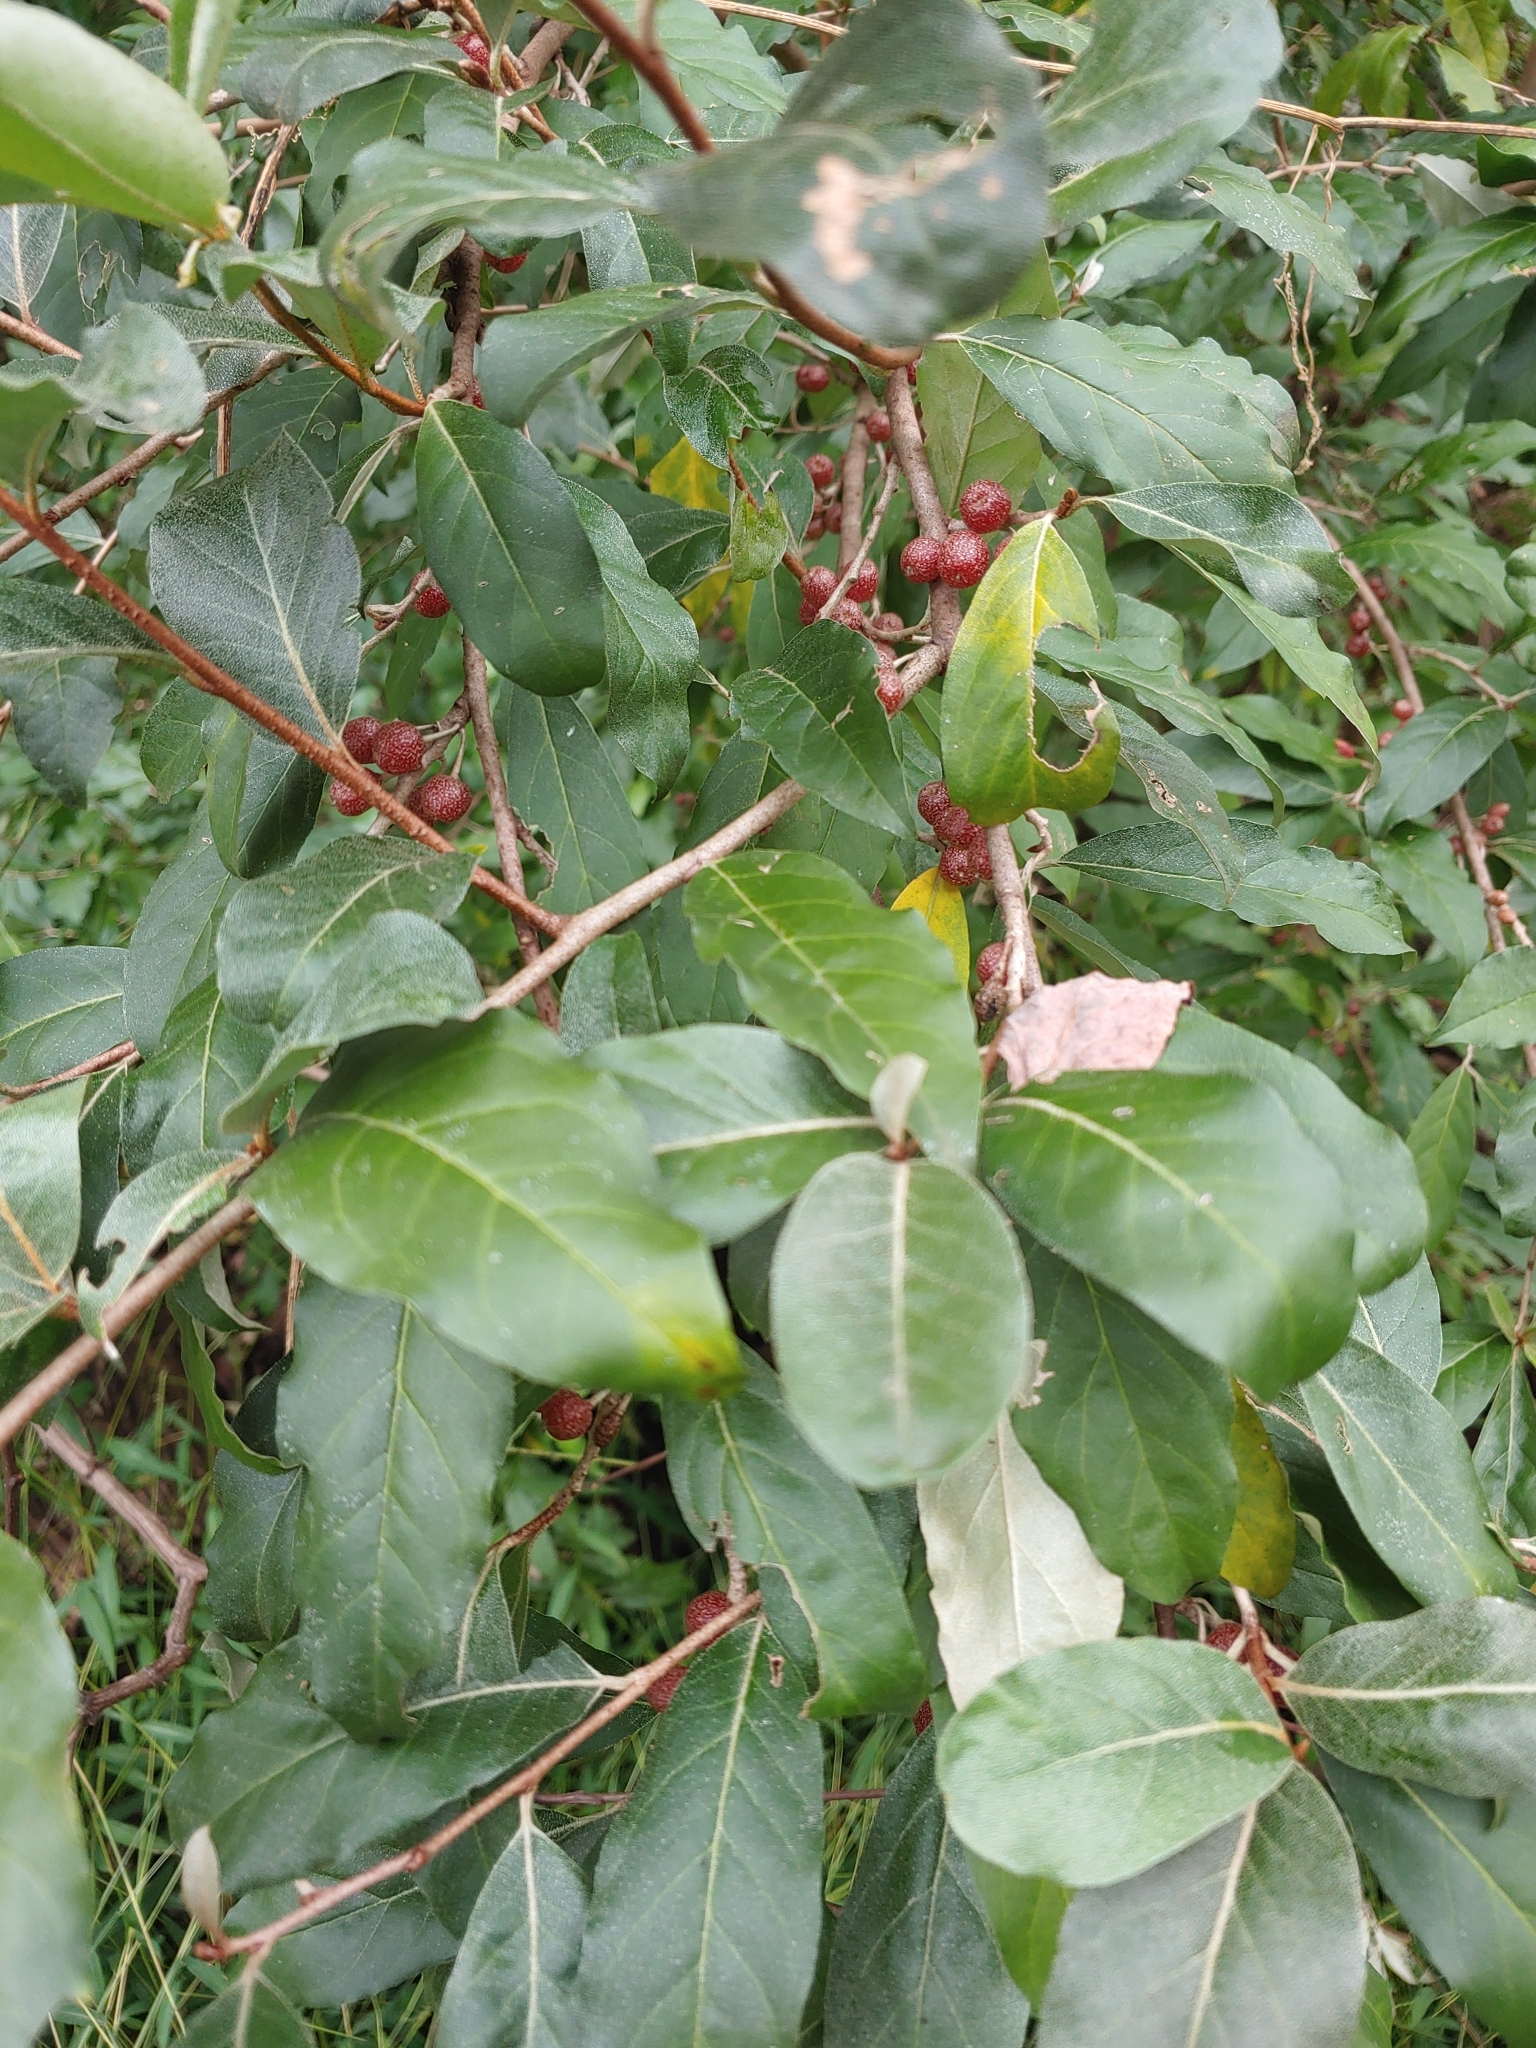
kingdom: Plantae
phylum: Tracheophyta
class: Magnoliopsida
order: Rosales
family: Elaeagnaceae
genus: Elaeagnus
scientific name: Elaeagnus umbellata
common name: Autumn olive
